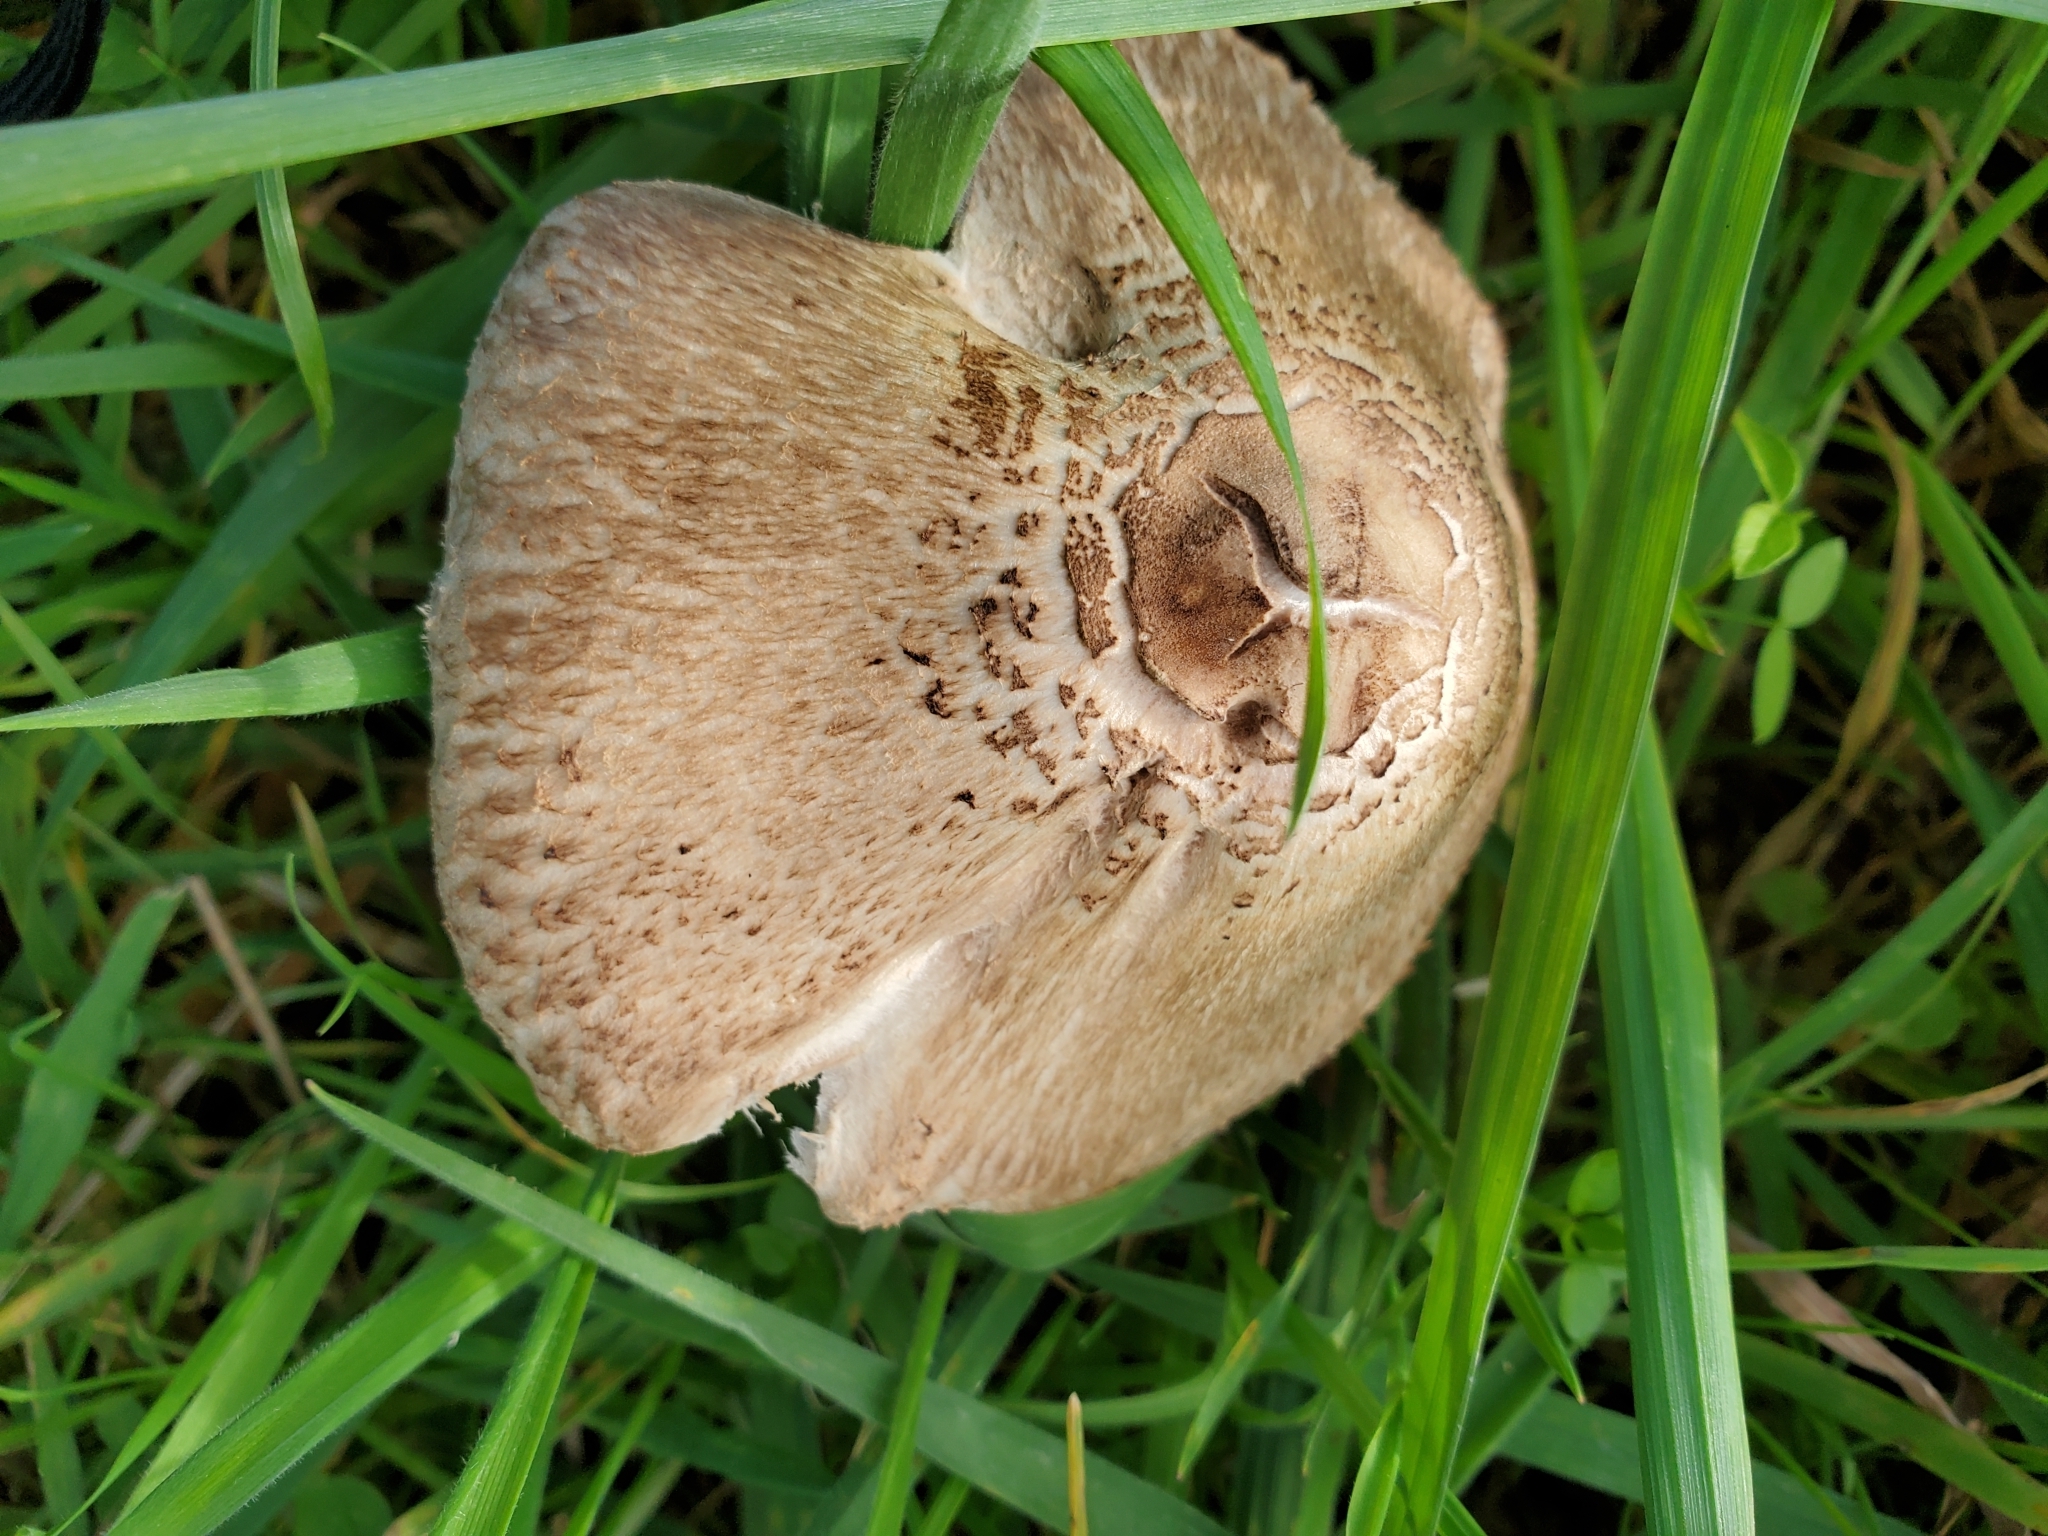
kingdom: Fungi
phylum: Basidiomycota
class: Agaricomycetes
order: Agaricales
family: Agaricaceae
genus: Macrolepiota
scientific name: Macrolepiota clelandii
